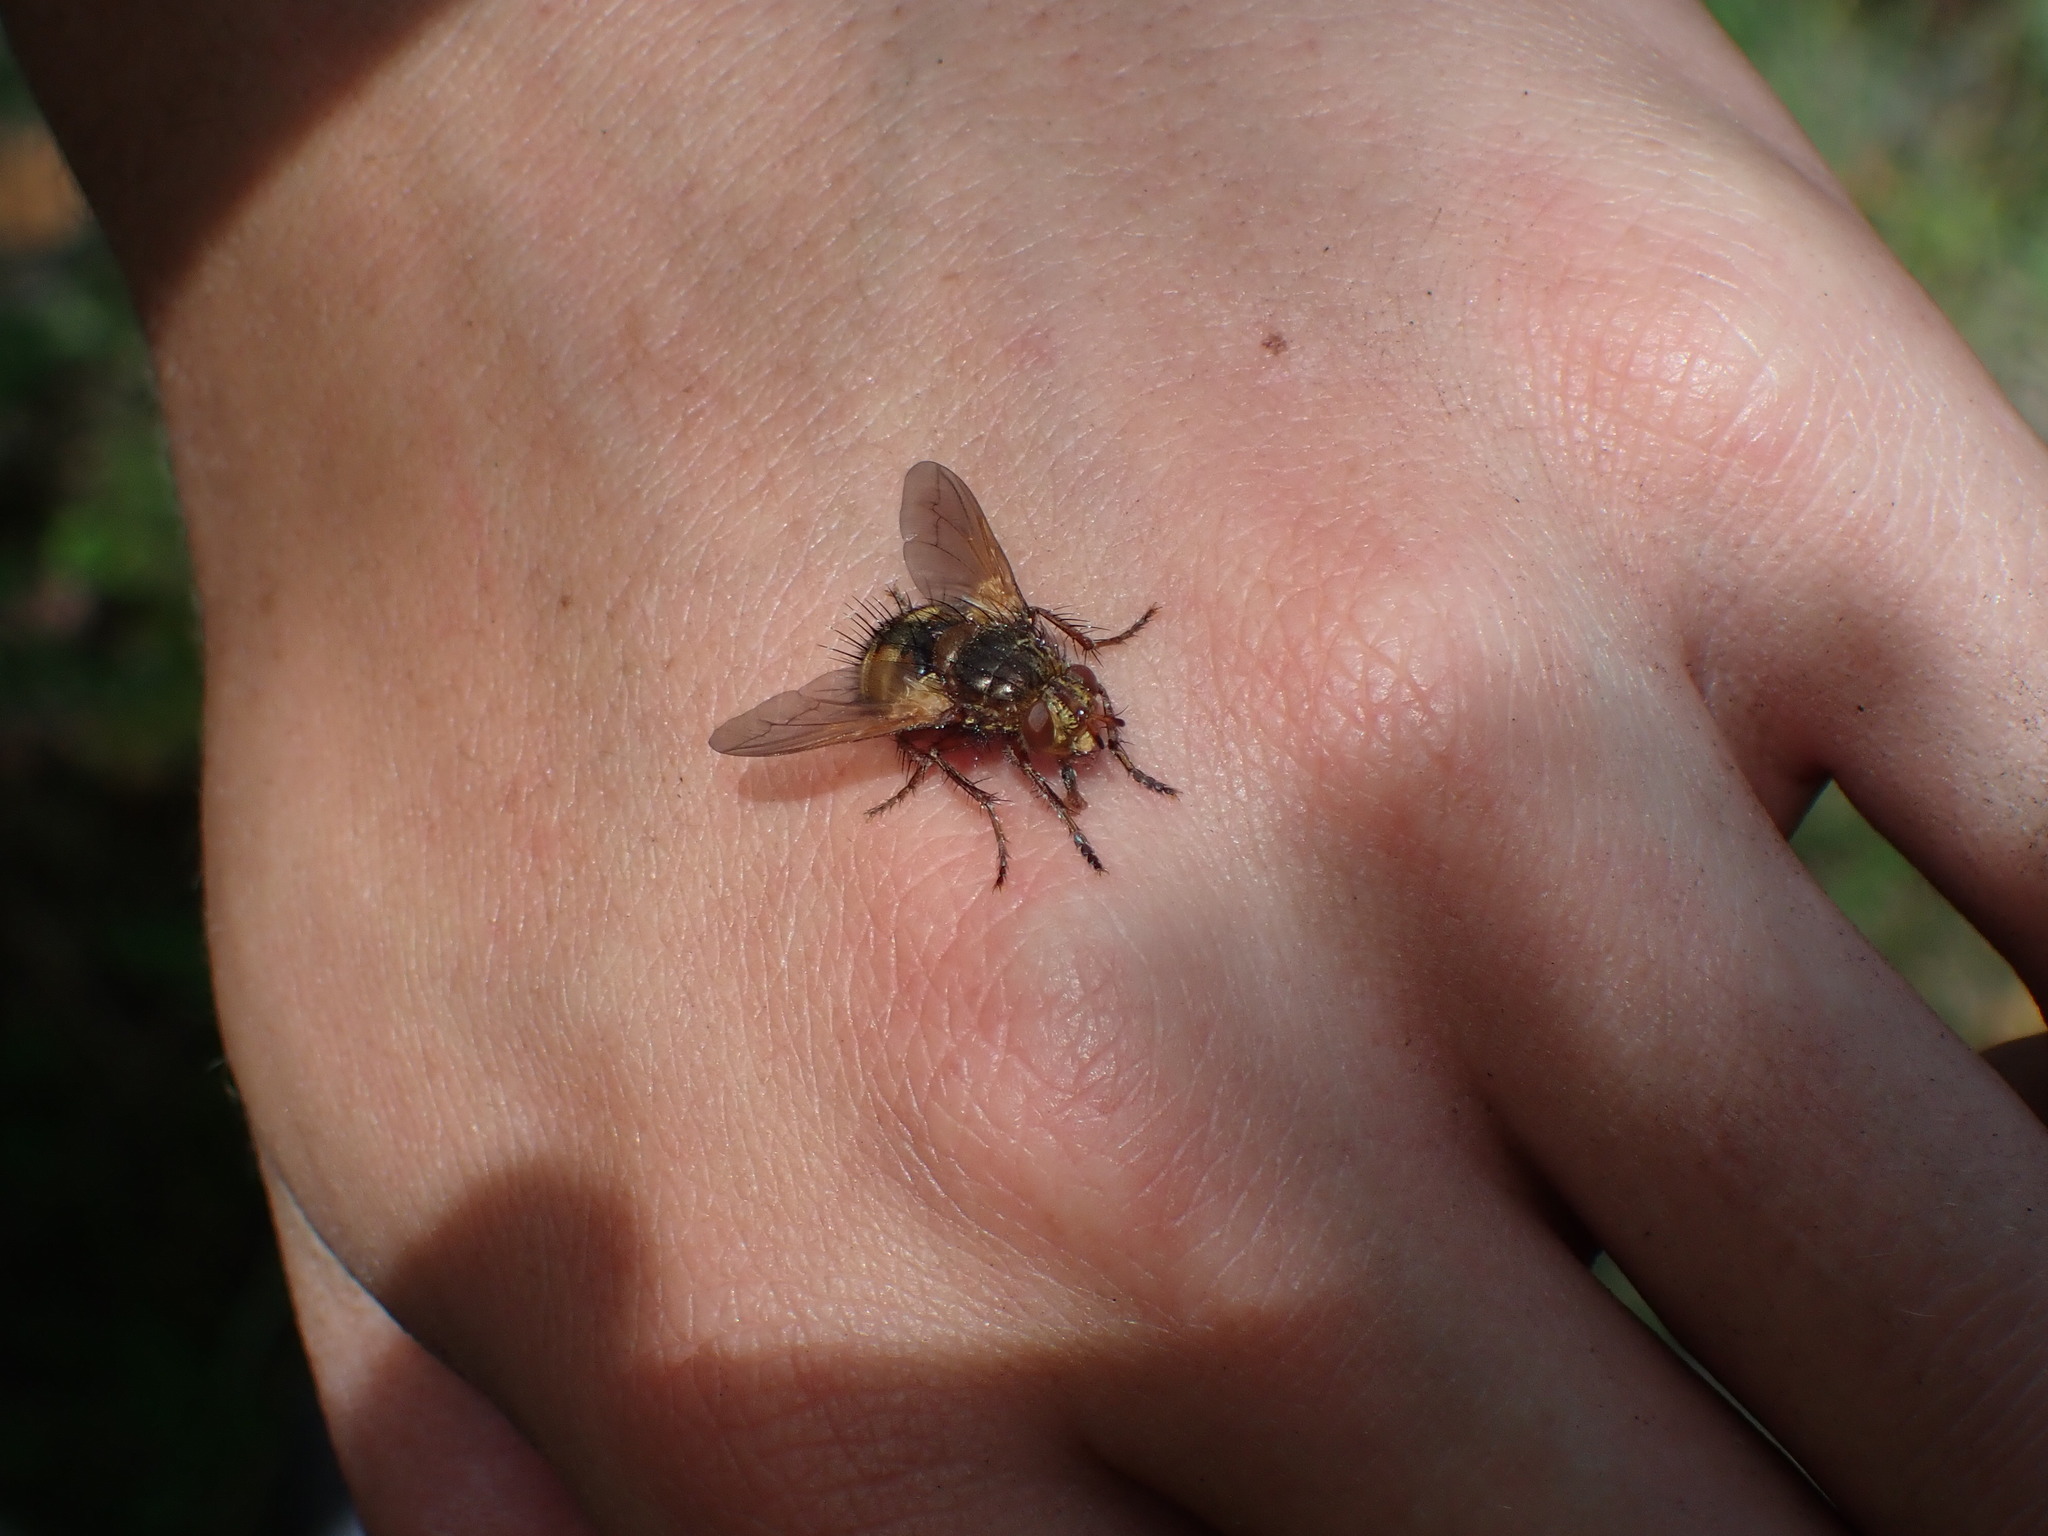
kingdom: Animalia
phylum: Arthropoda
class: Insecta
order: Diptera
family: Tachinidae
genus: Tachina
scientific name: Tachina fera
